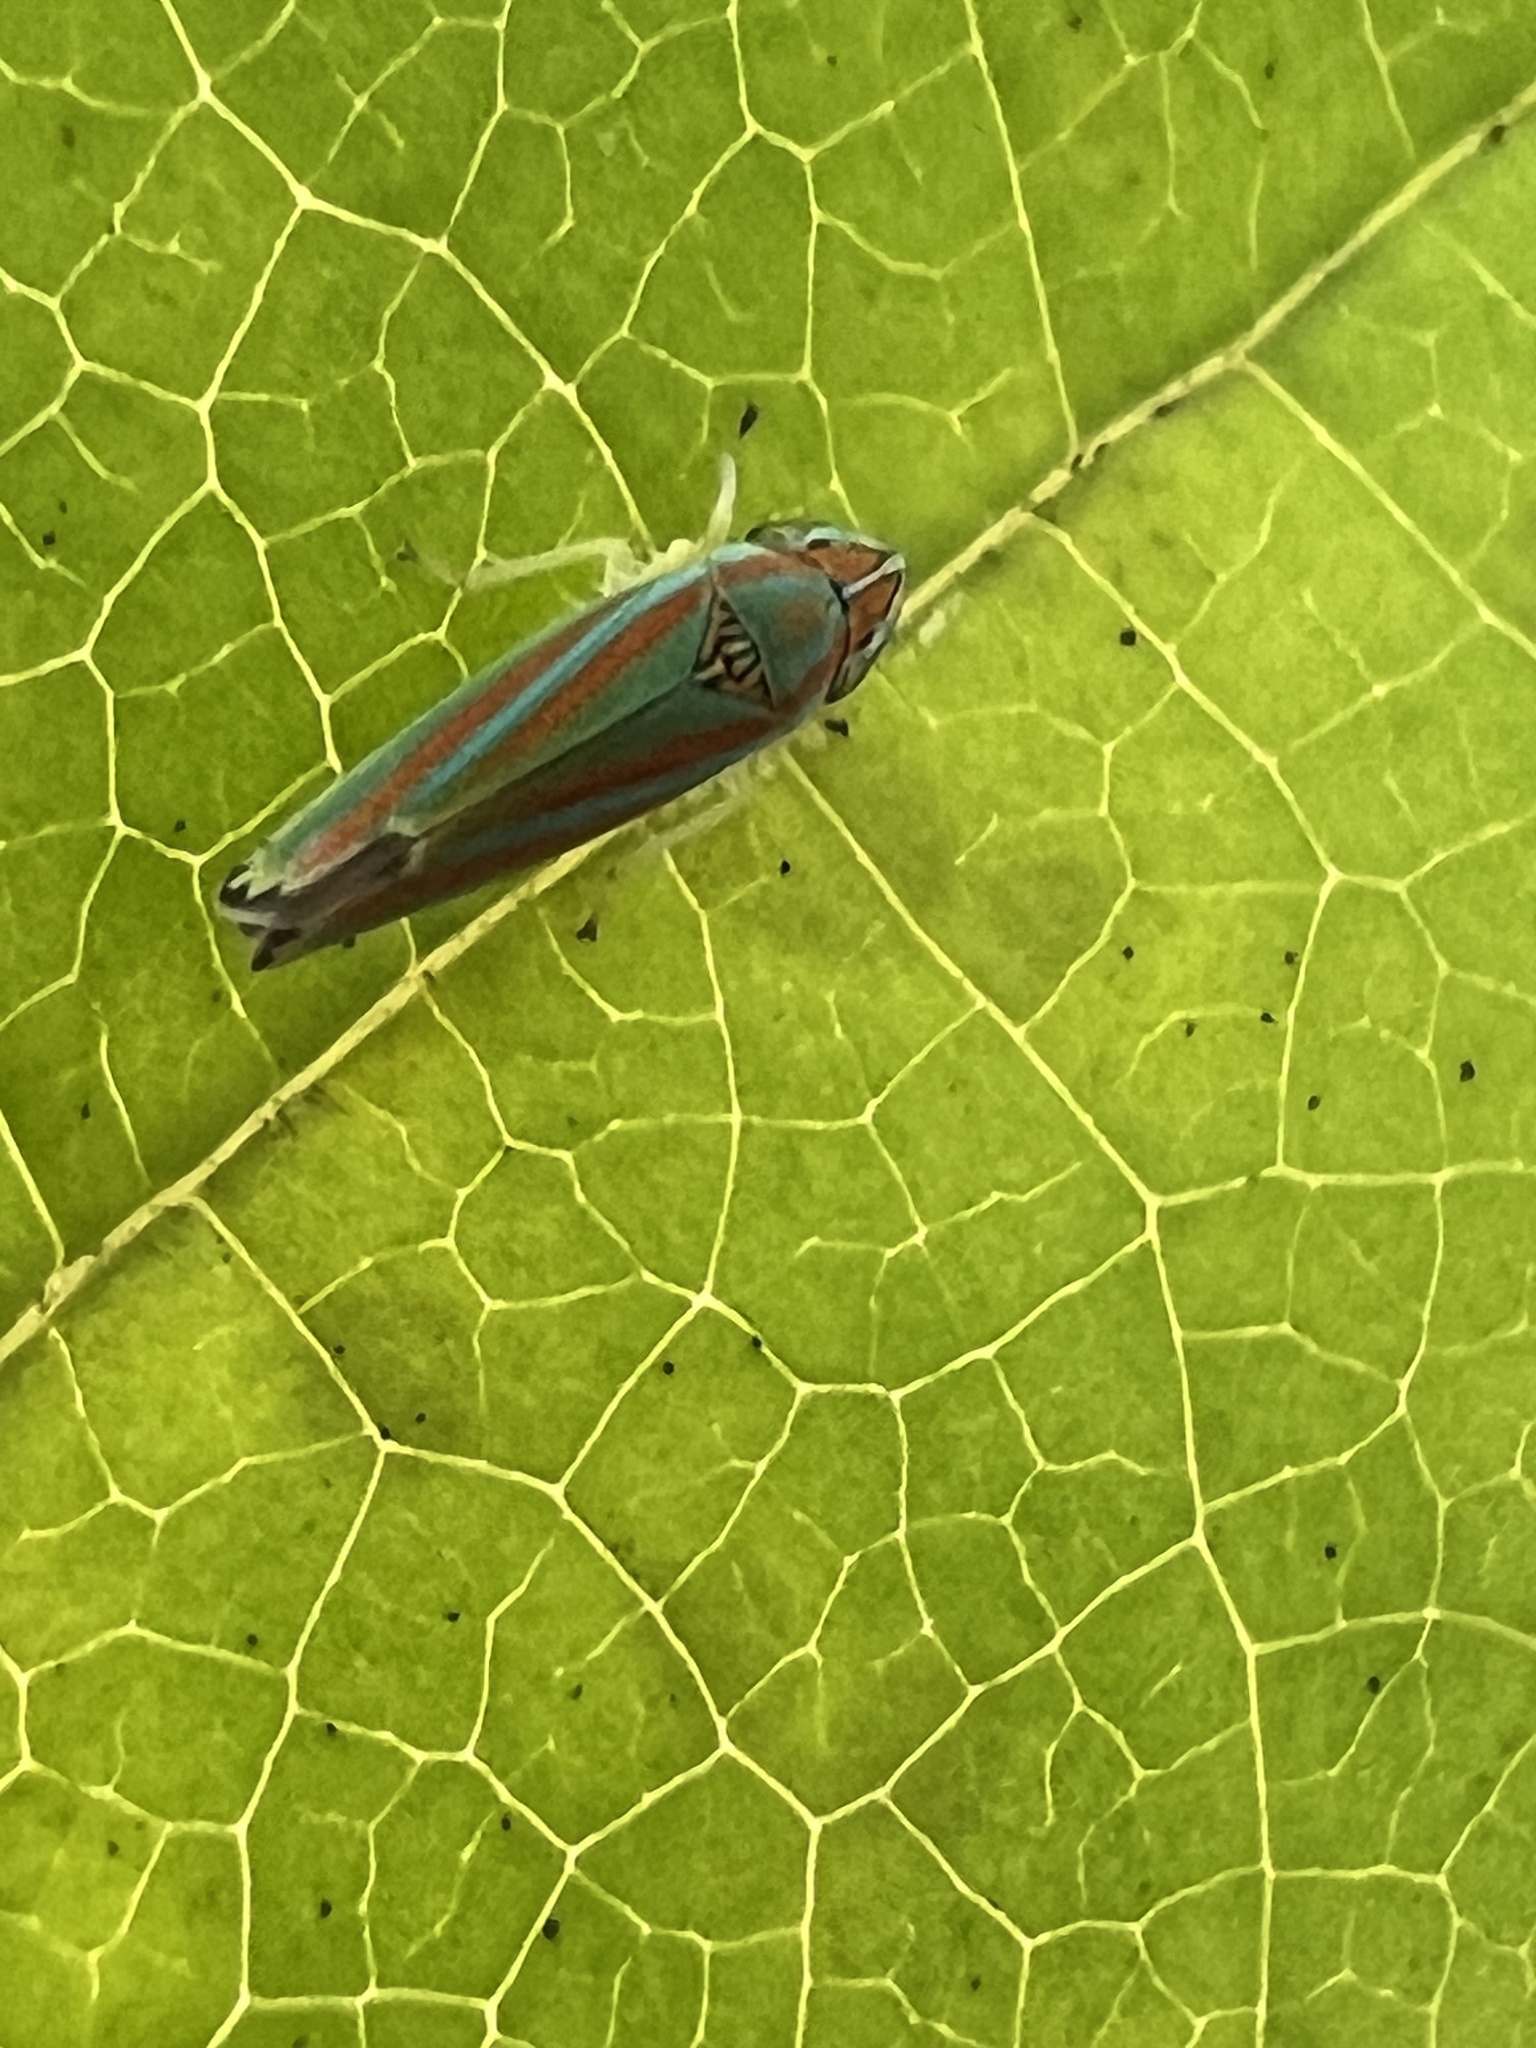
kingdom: Animalia
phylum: Arthropoda
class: Insecta
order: Hemiptera
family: Cicadellidae
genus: Graphocephala
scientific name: Graphocephala versuta
